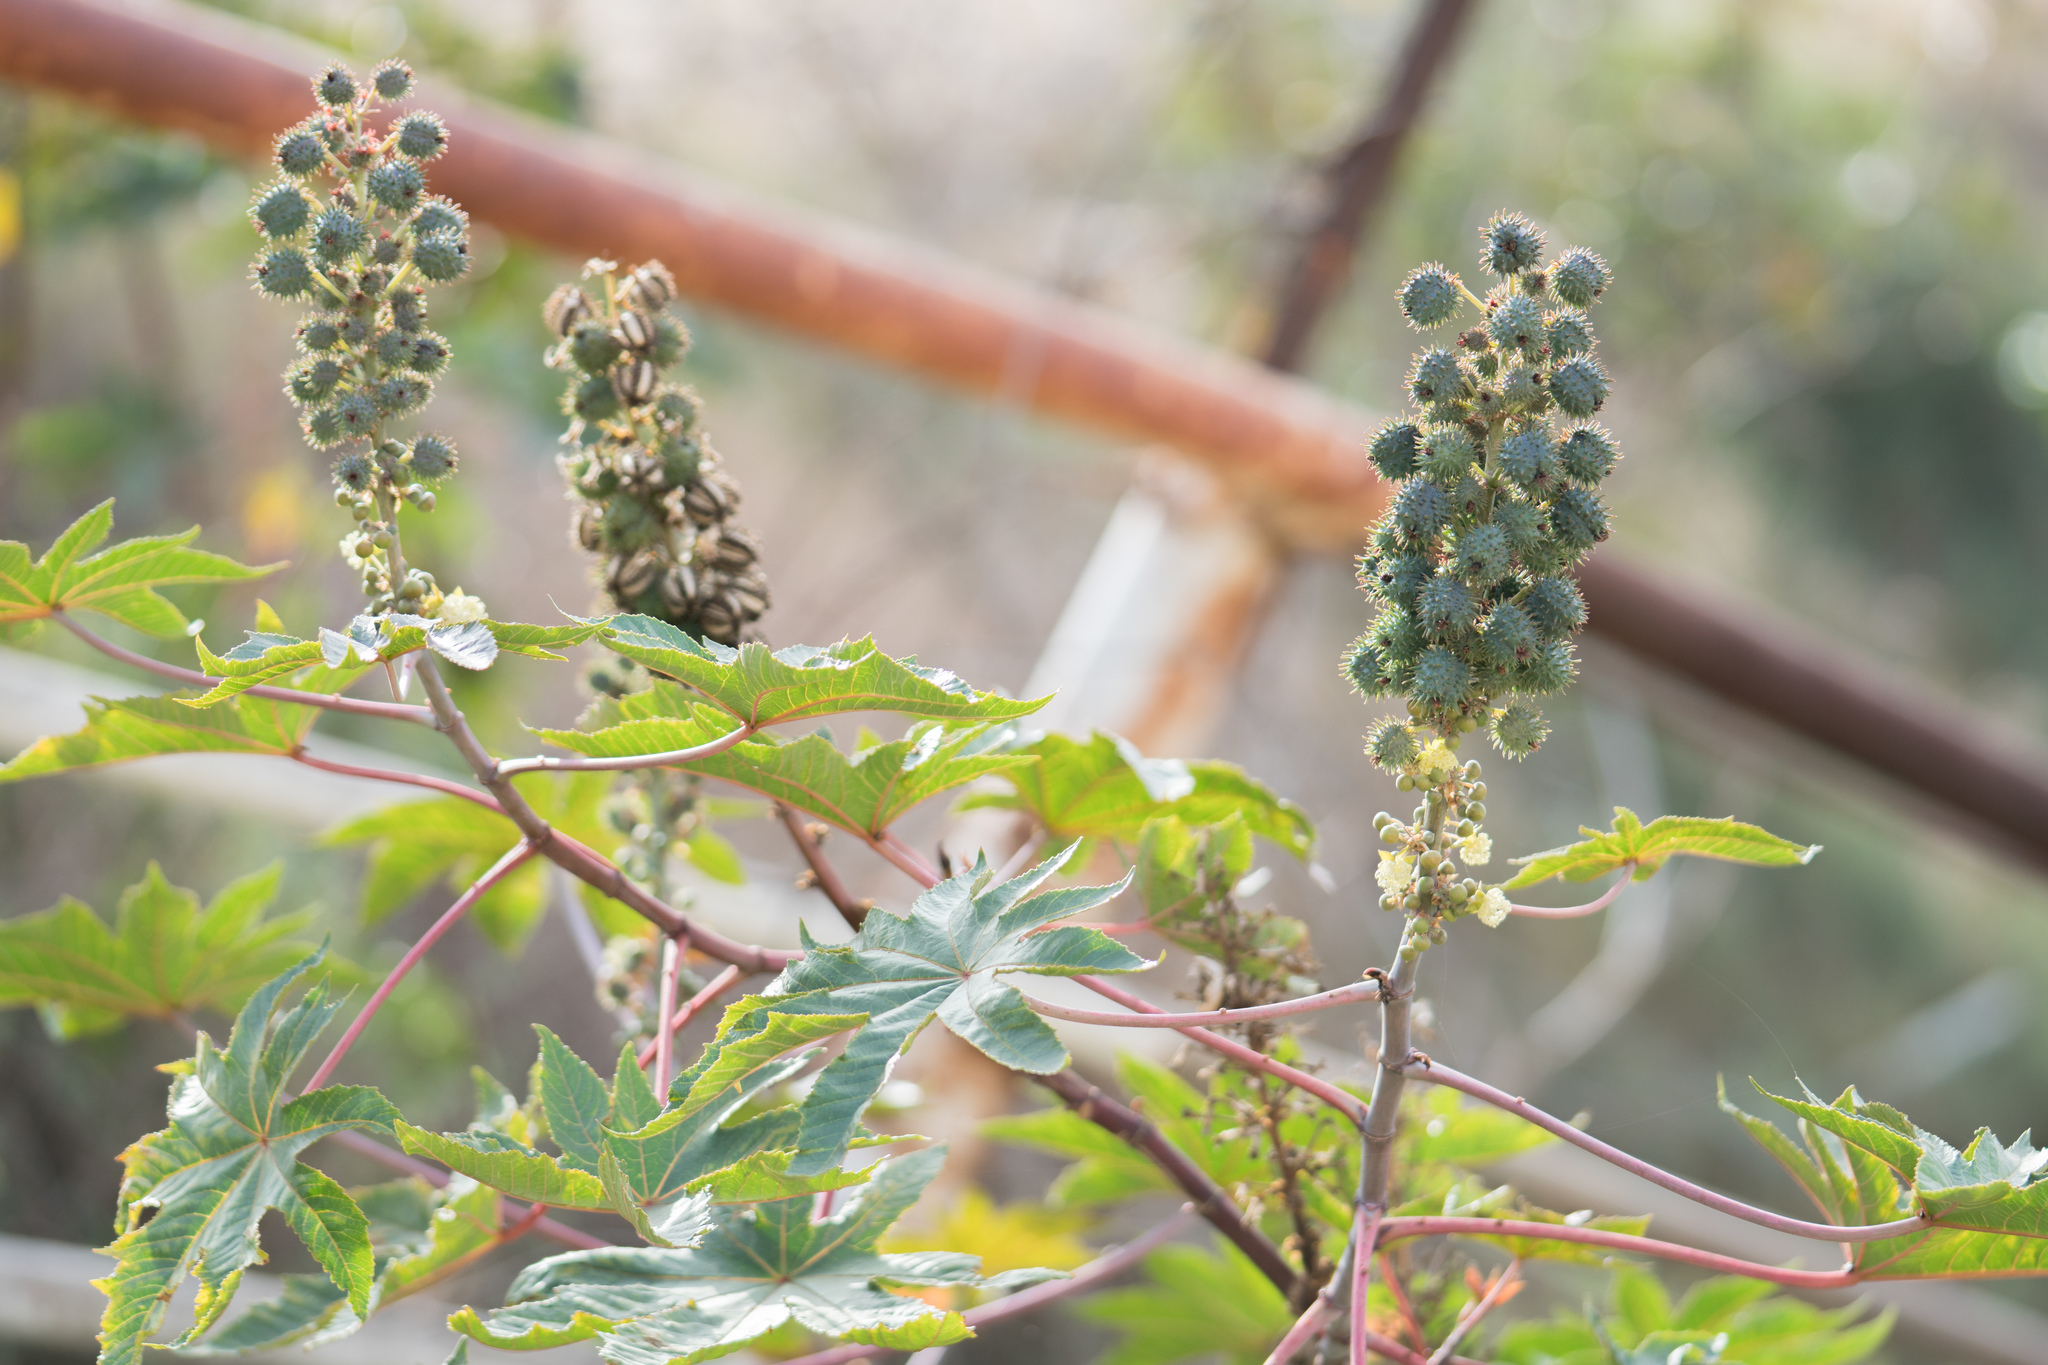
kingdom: Plantae
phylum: Tracheophyta
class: Magnoliopsida
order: Malpighiales
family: Euphorbiaceae
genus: Ricinus
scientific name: Ricinus communis
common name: Castor-oil-plant
